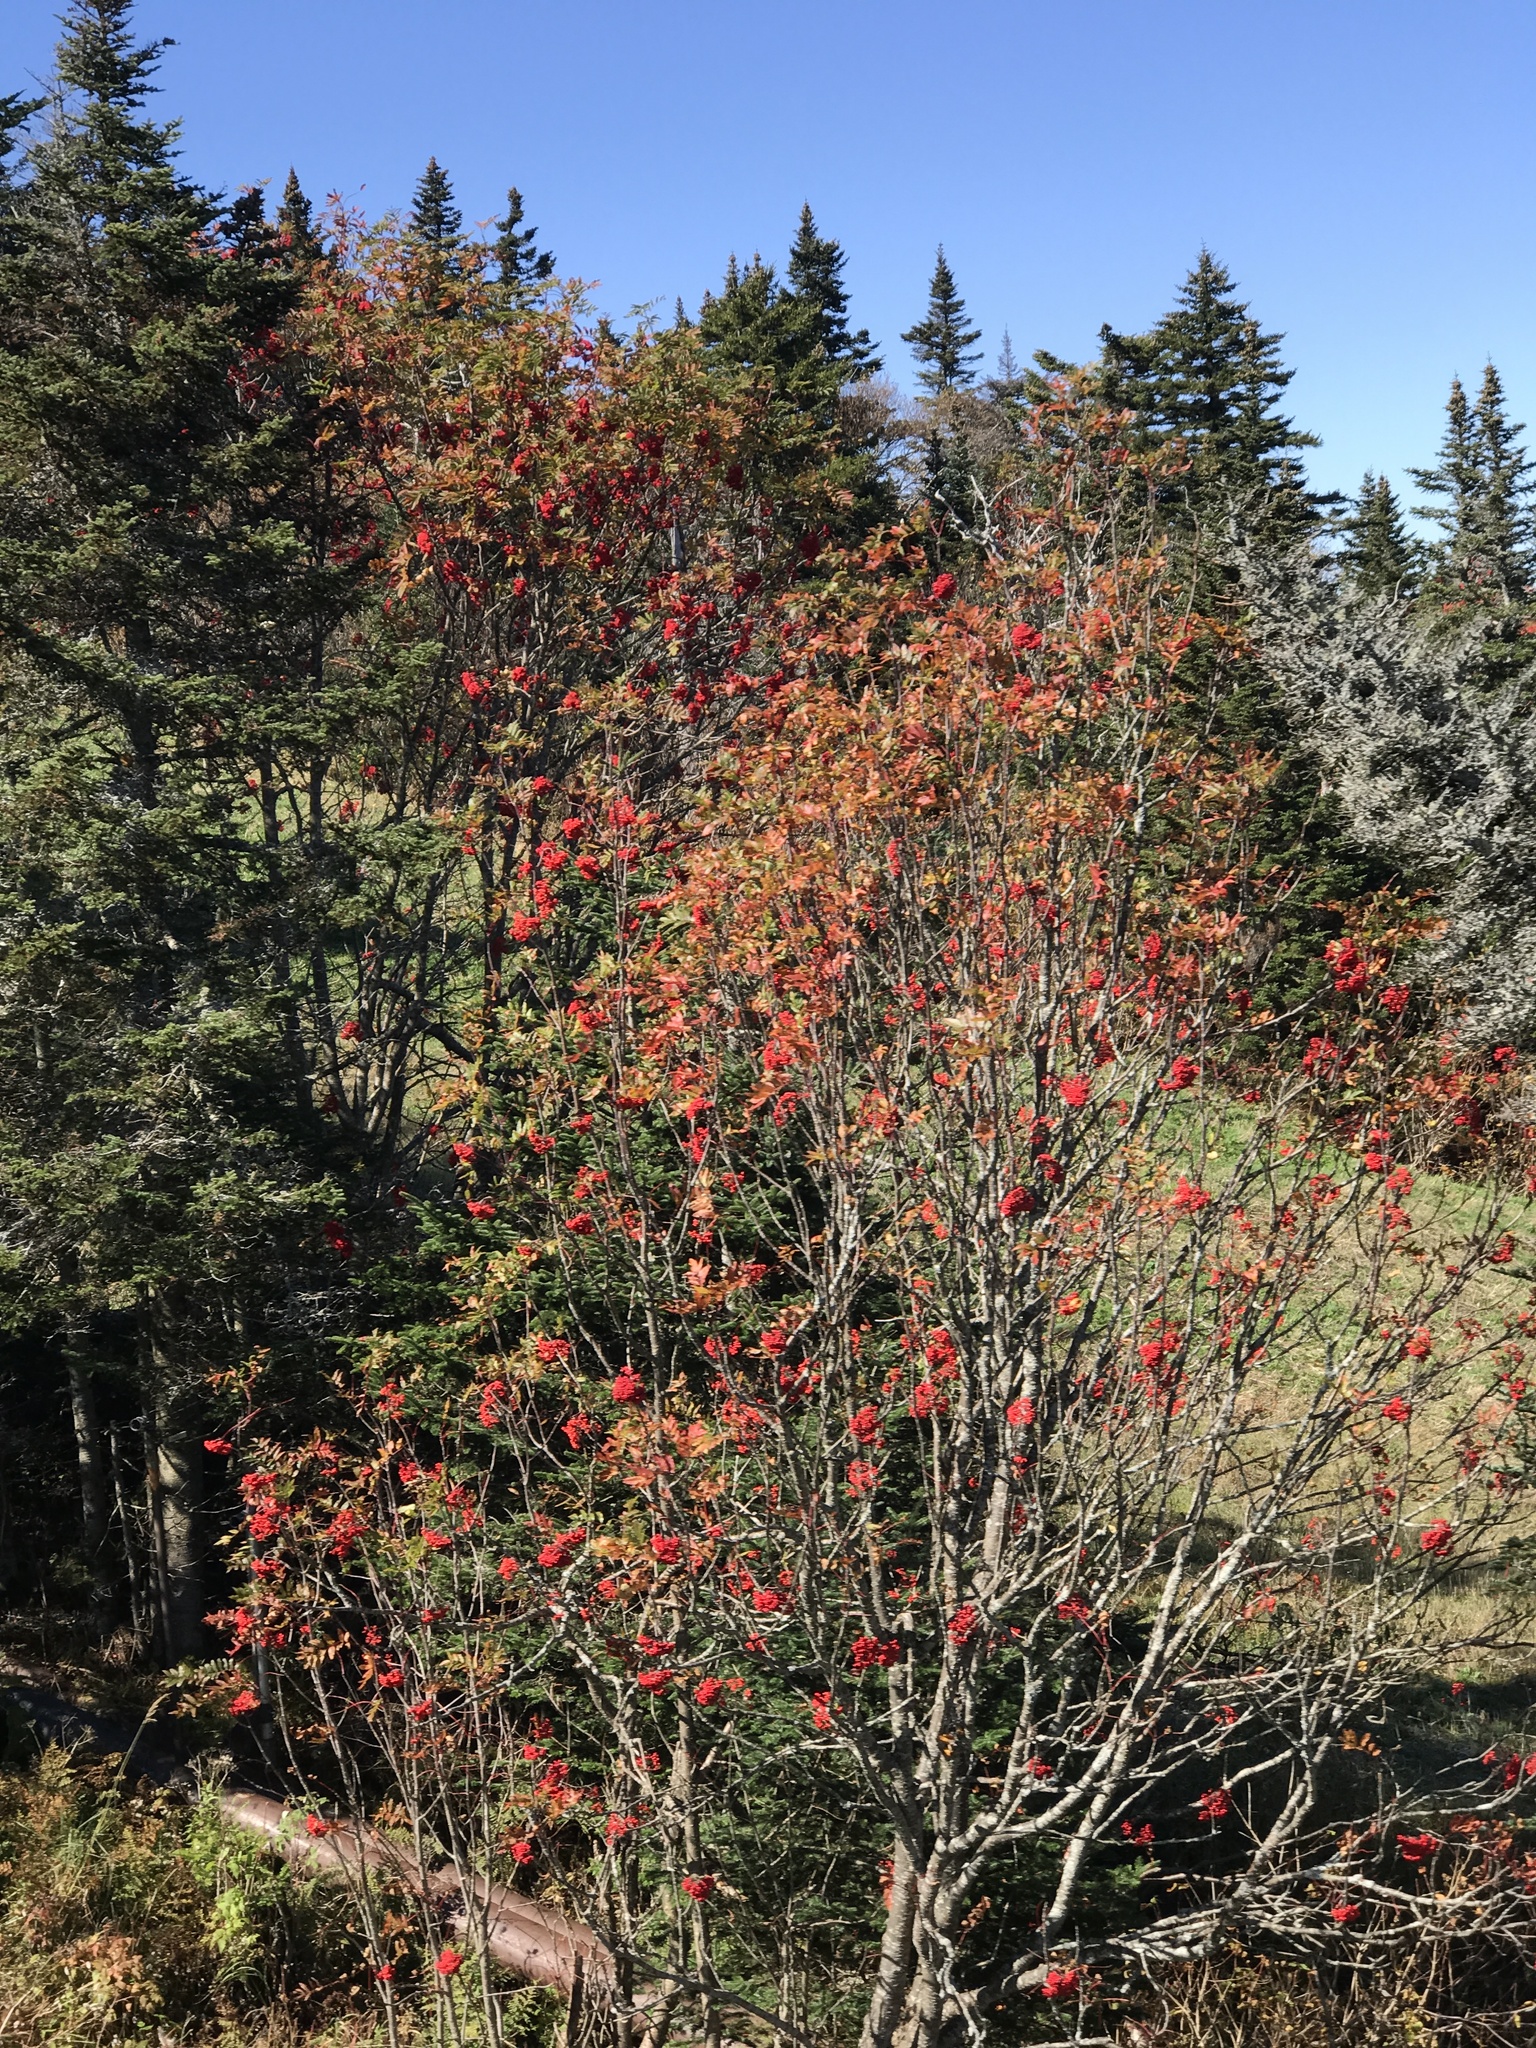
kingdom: Plantae
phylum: Tracheophyta
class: Magnoliopsida
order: Rosales
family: Rosaceae
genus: Sorbus
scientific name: Sorbus americana
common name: American mountain-ash
